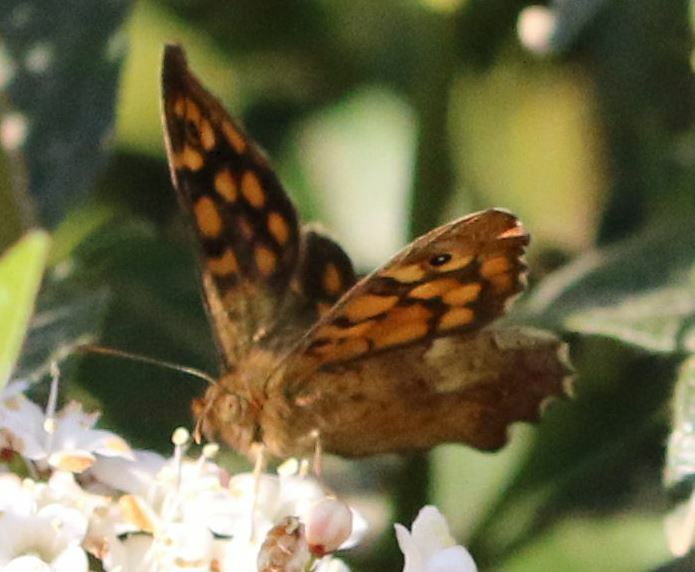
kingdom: Animalia
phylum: Arthropoda
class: Insecta
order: Lepidoptera
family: Nymphalidae
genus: Pararge
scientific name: Pararge aegeria
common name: Speckled wood
